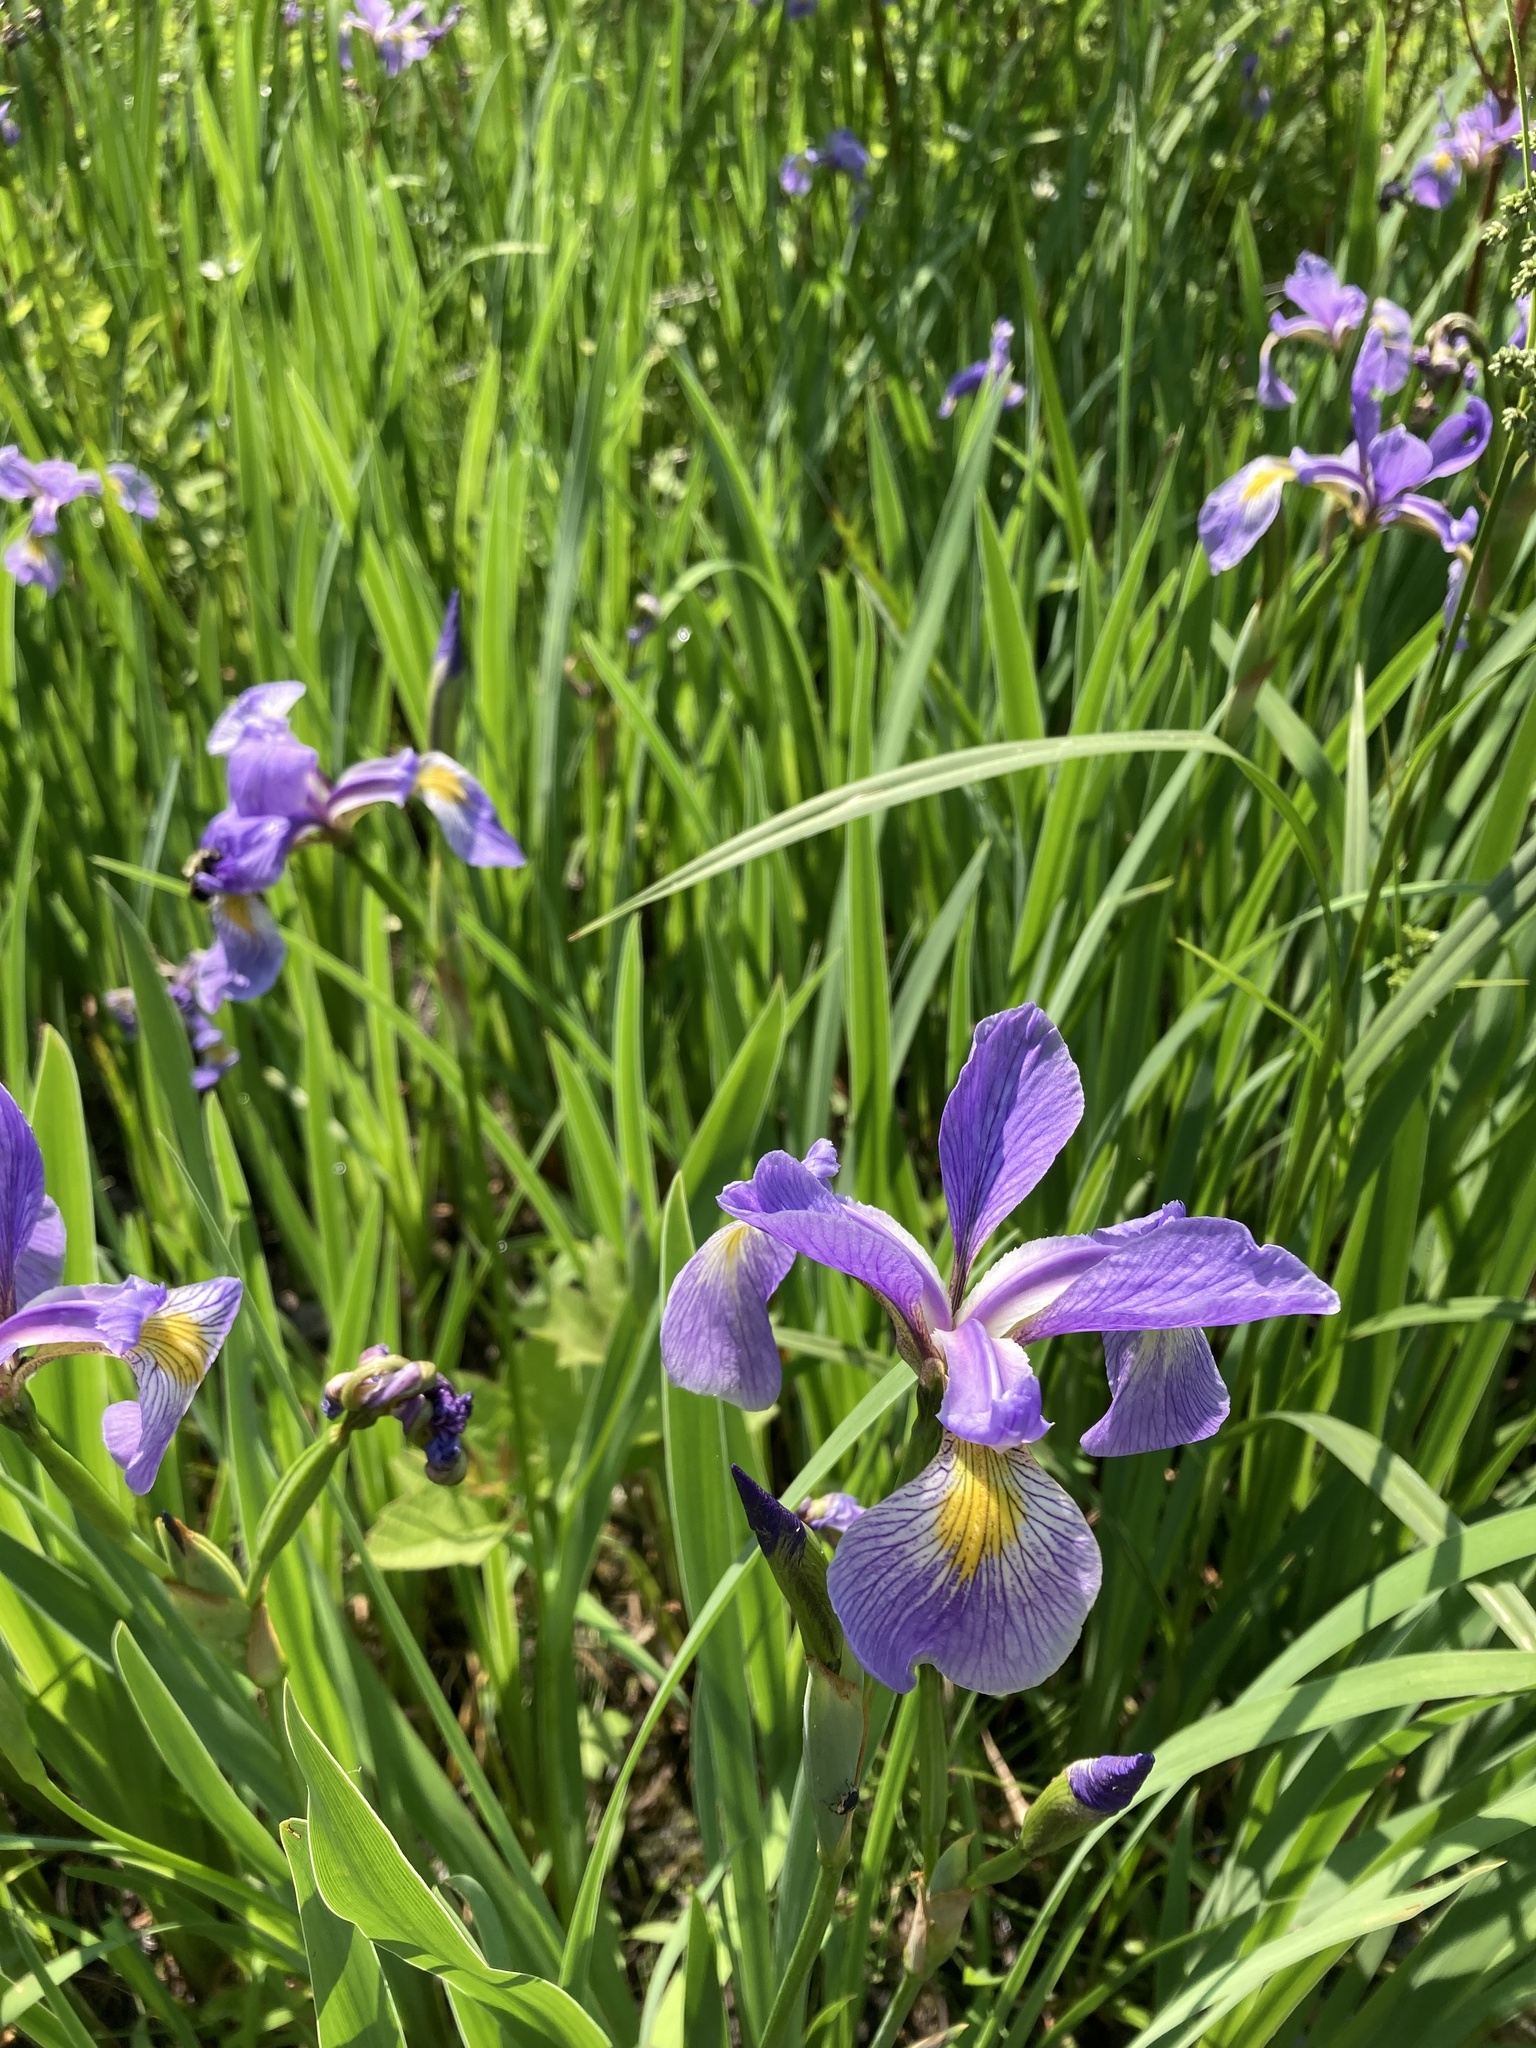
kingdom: Plantae
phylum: Tracheophyta
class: Liliopsida
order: Asparagales
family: Iridaceae
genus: Iris
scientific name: Iris virginica
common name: Southern blue flag
